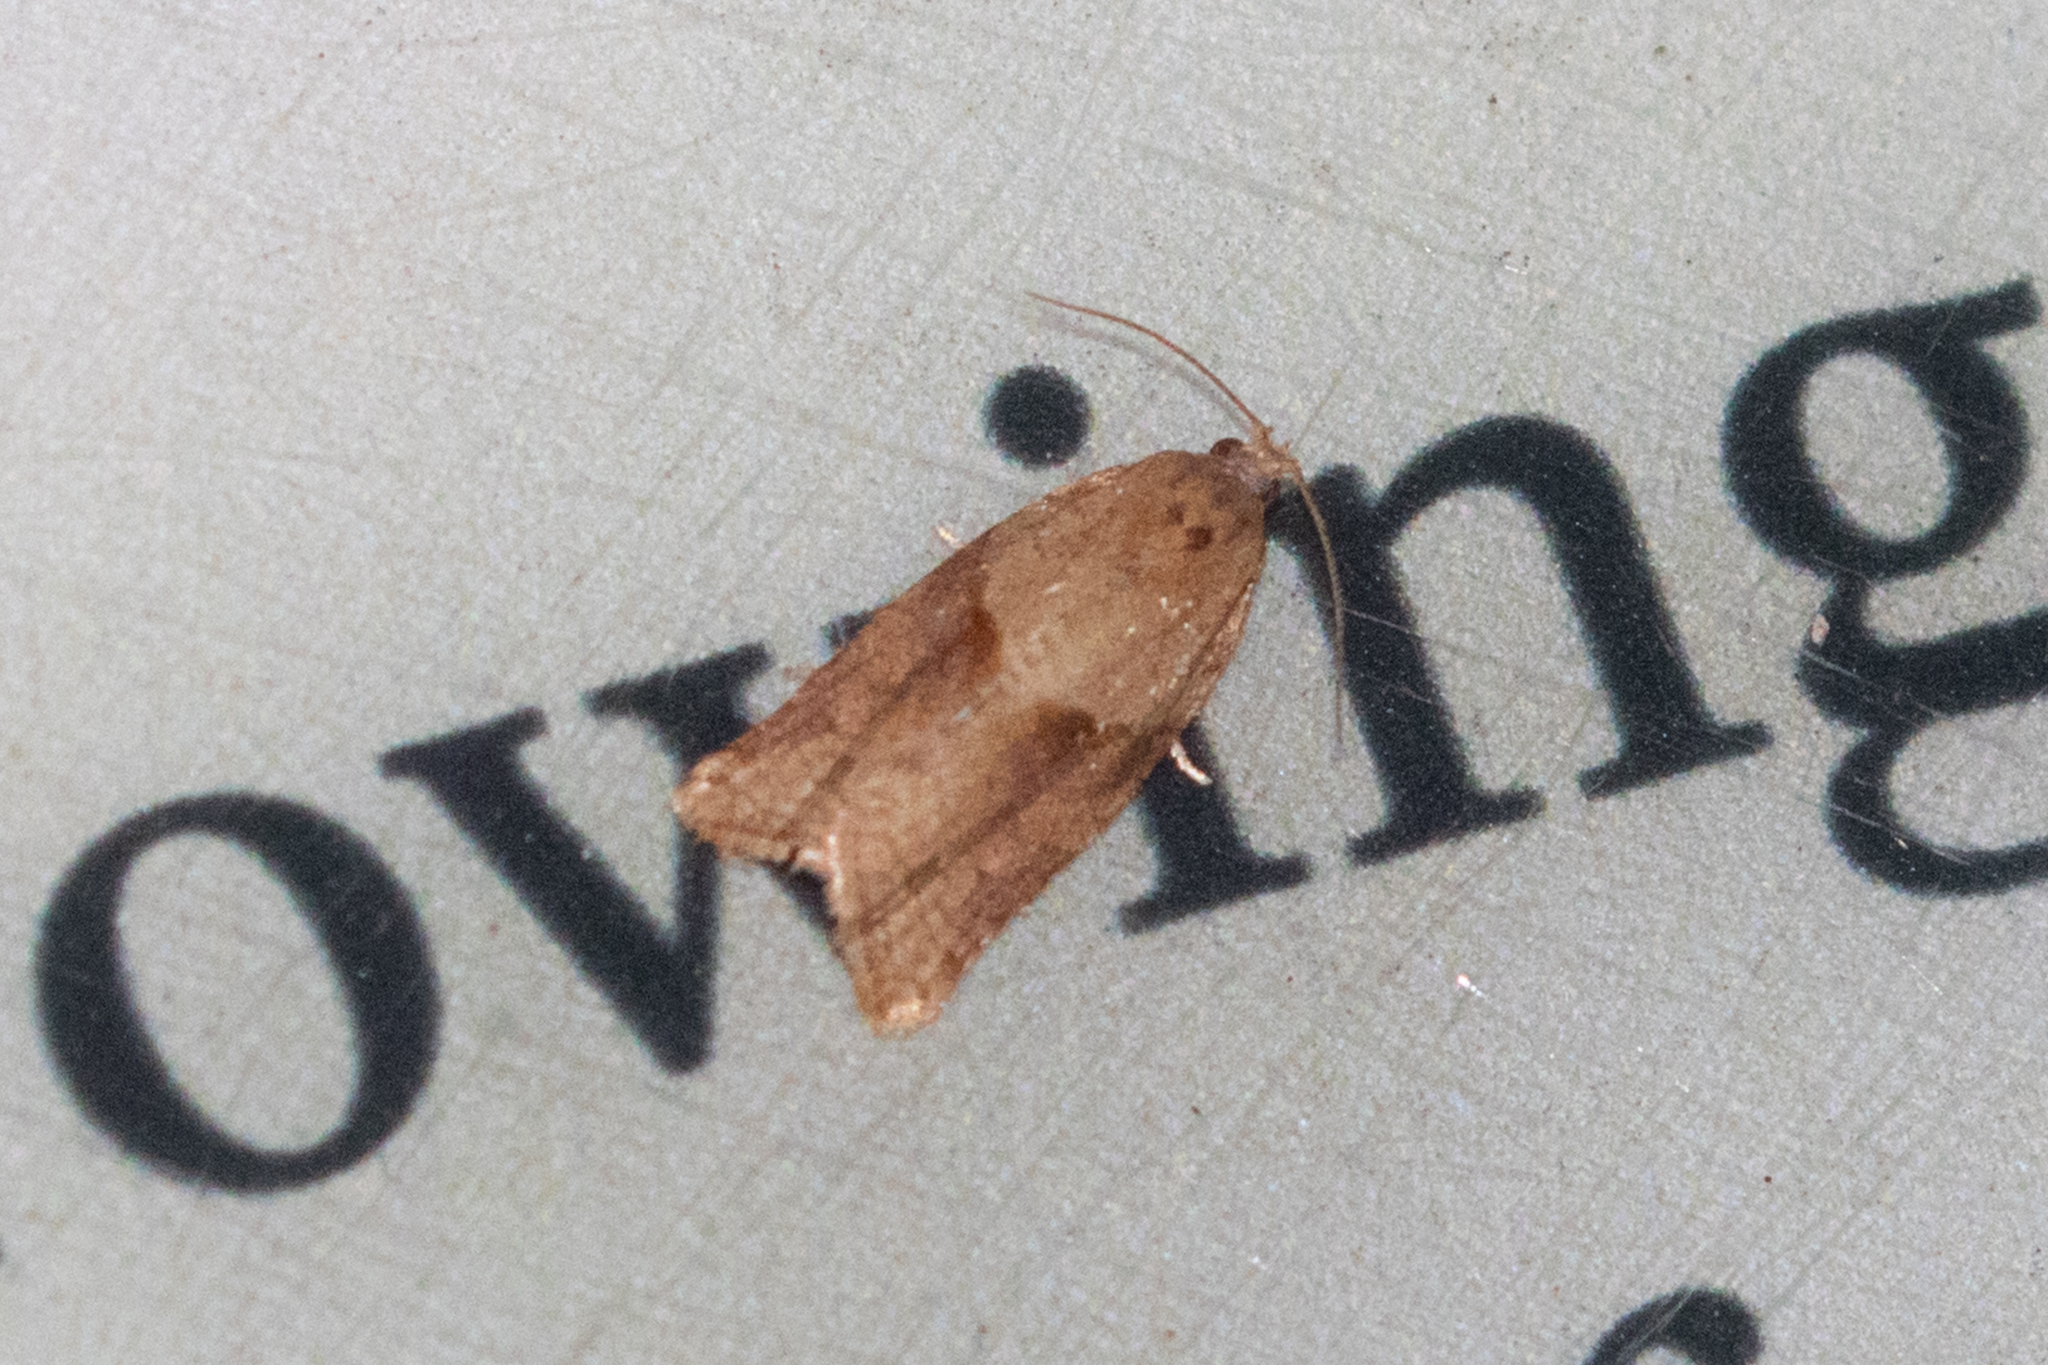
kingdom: Animalia
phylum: Arthropoda
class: Insecta
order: Lepidoptera
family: Tortricidae
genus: Argyrotaenia
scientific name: Argyrotaenia ivana
